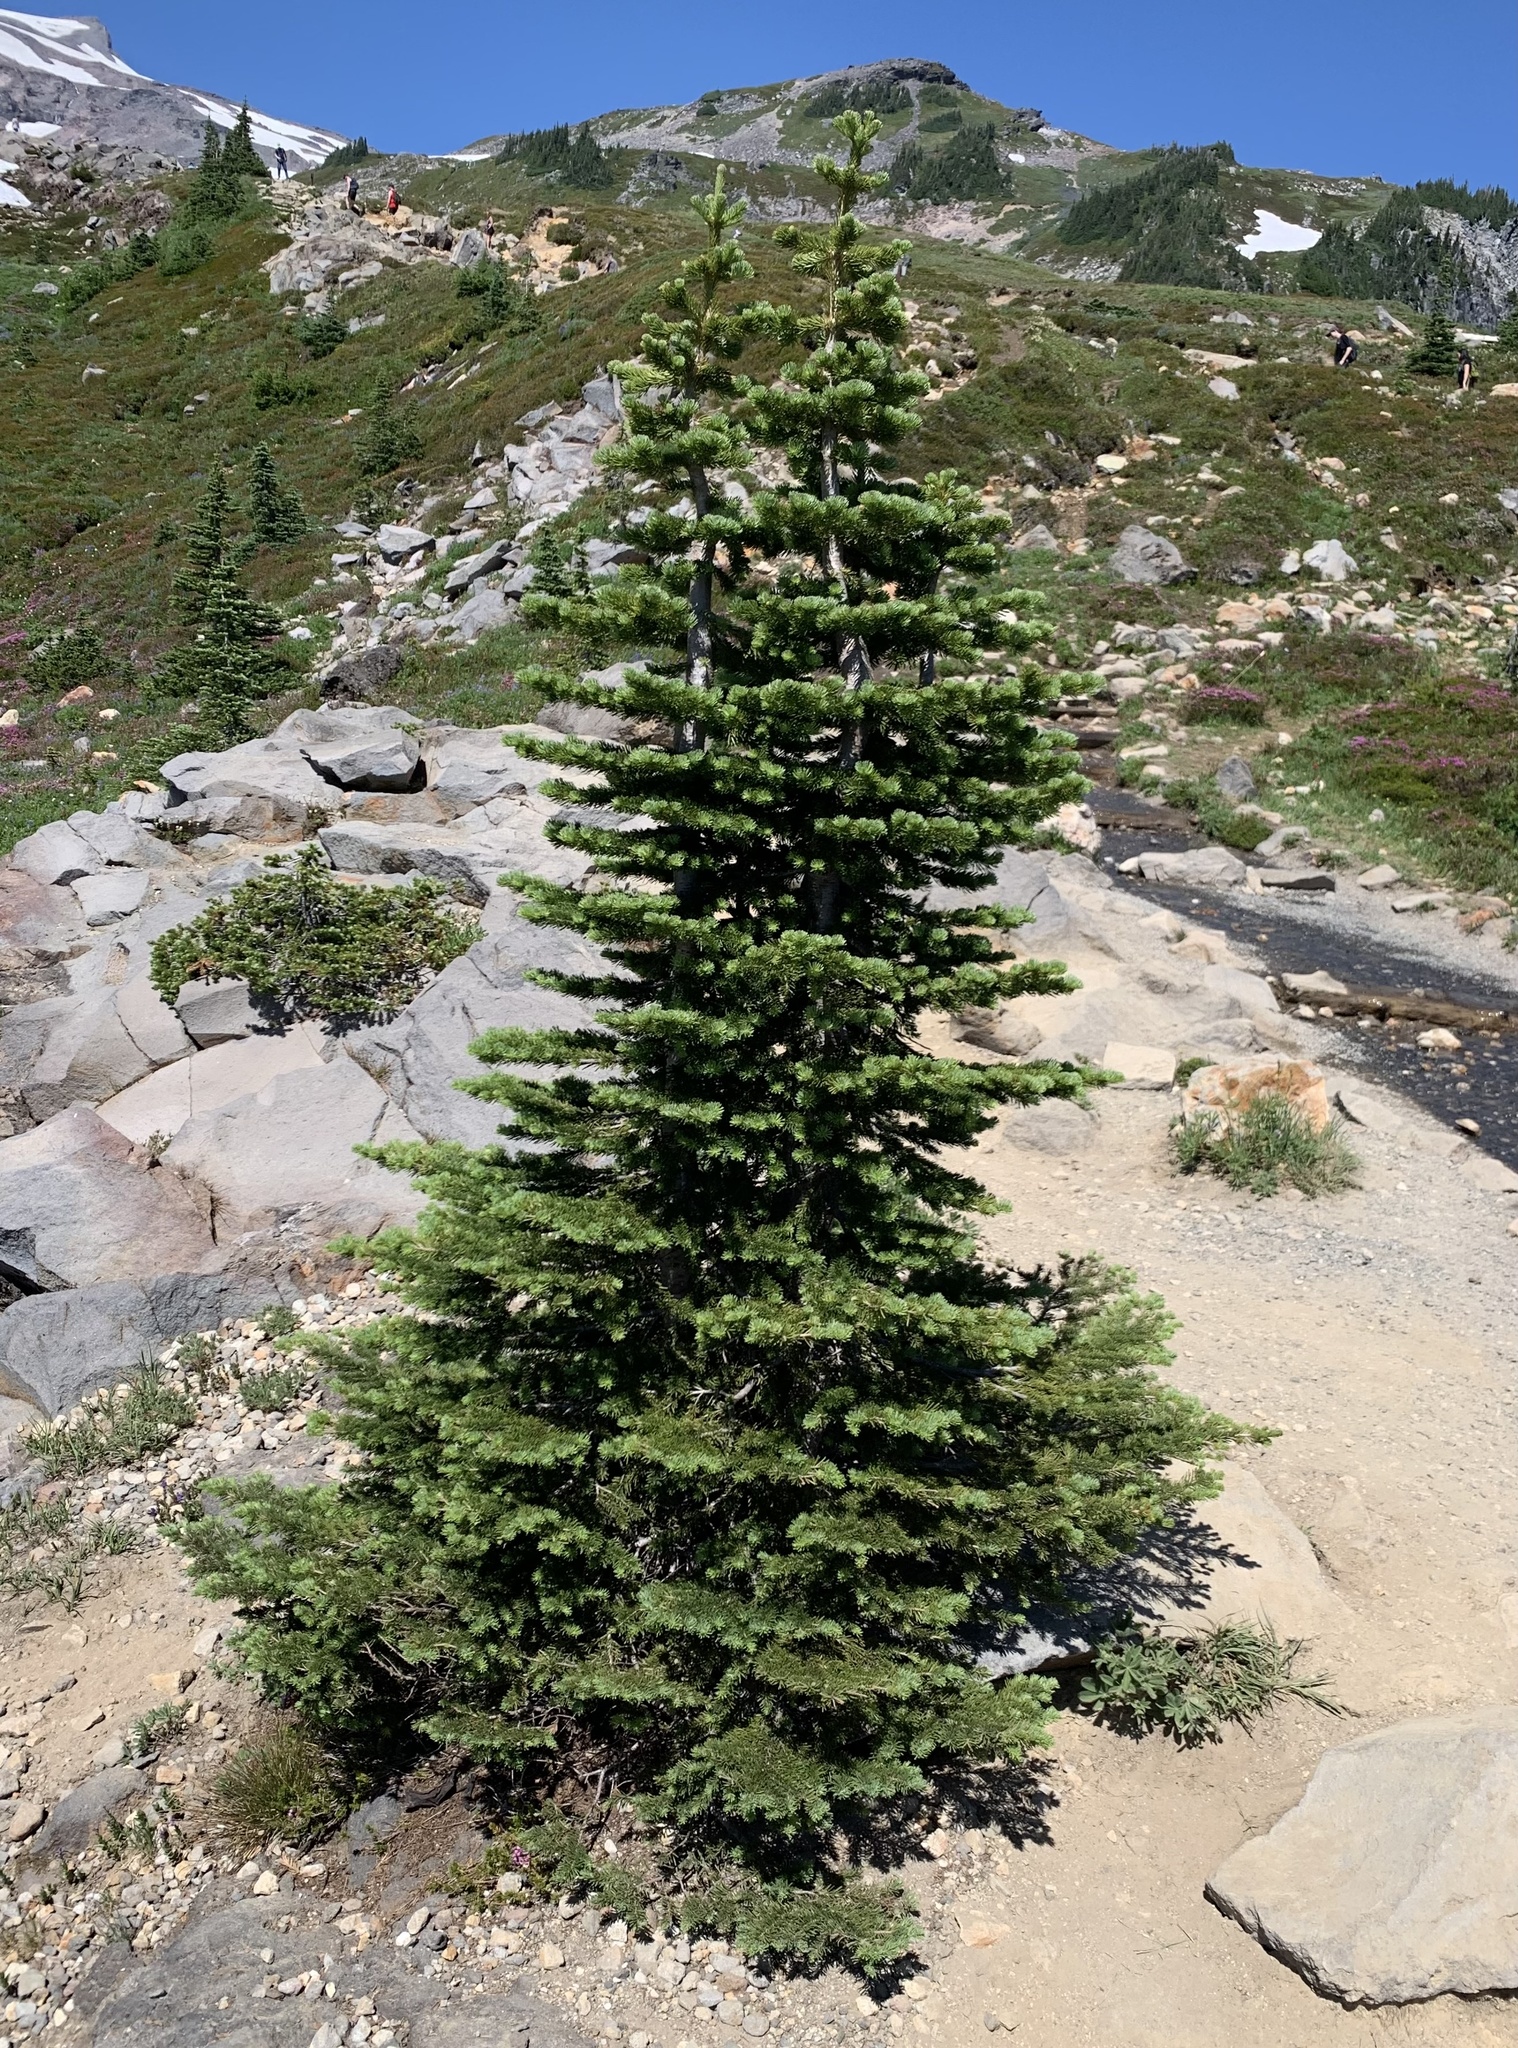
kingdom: Plantae
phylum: Tracheophyta
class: Pinopsida
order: Pinales
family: Pinaceae
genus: Abies
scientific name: Abies lasiocarpa
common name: Subalpine fir
